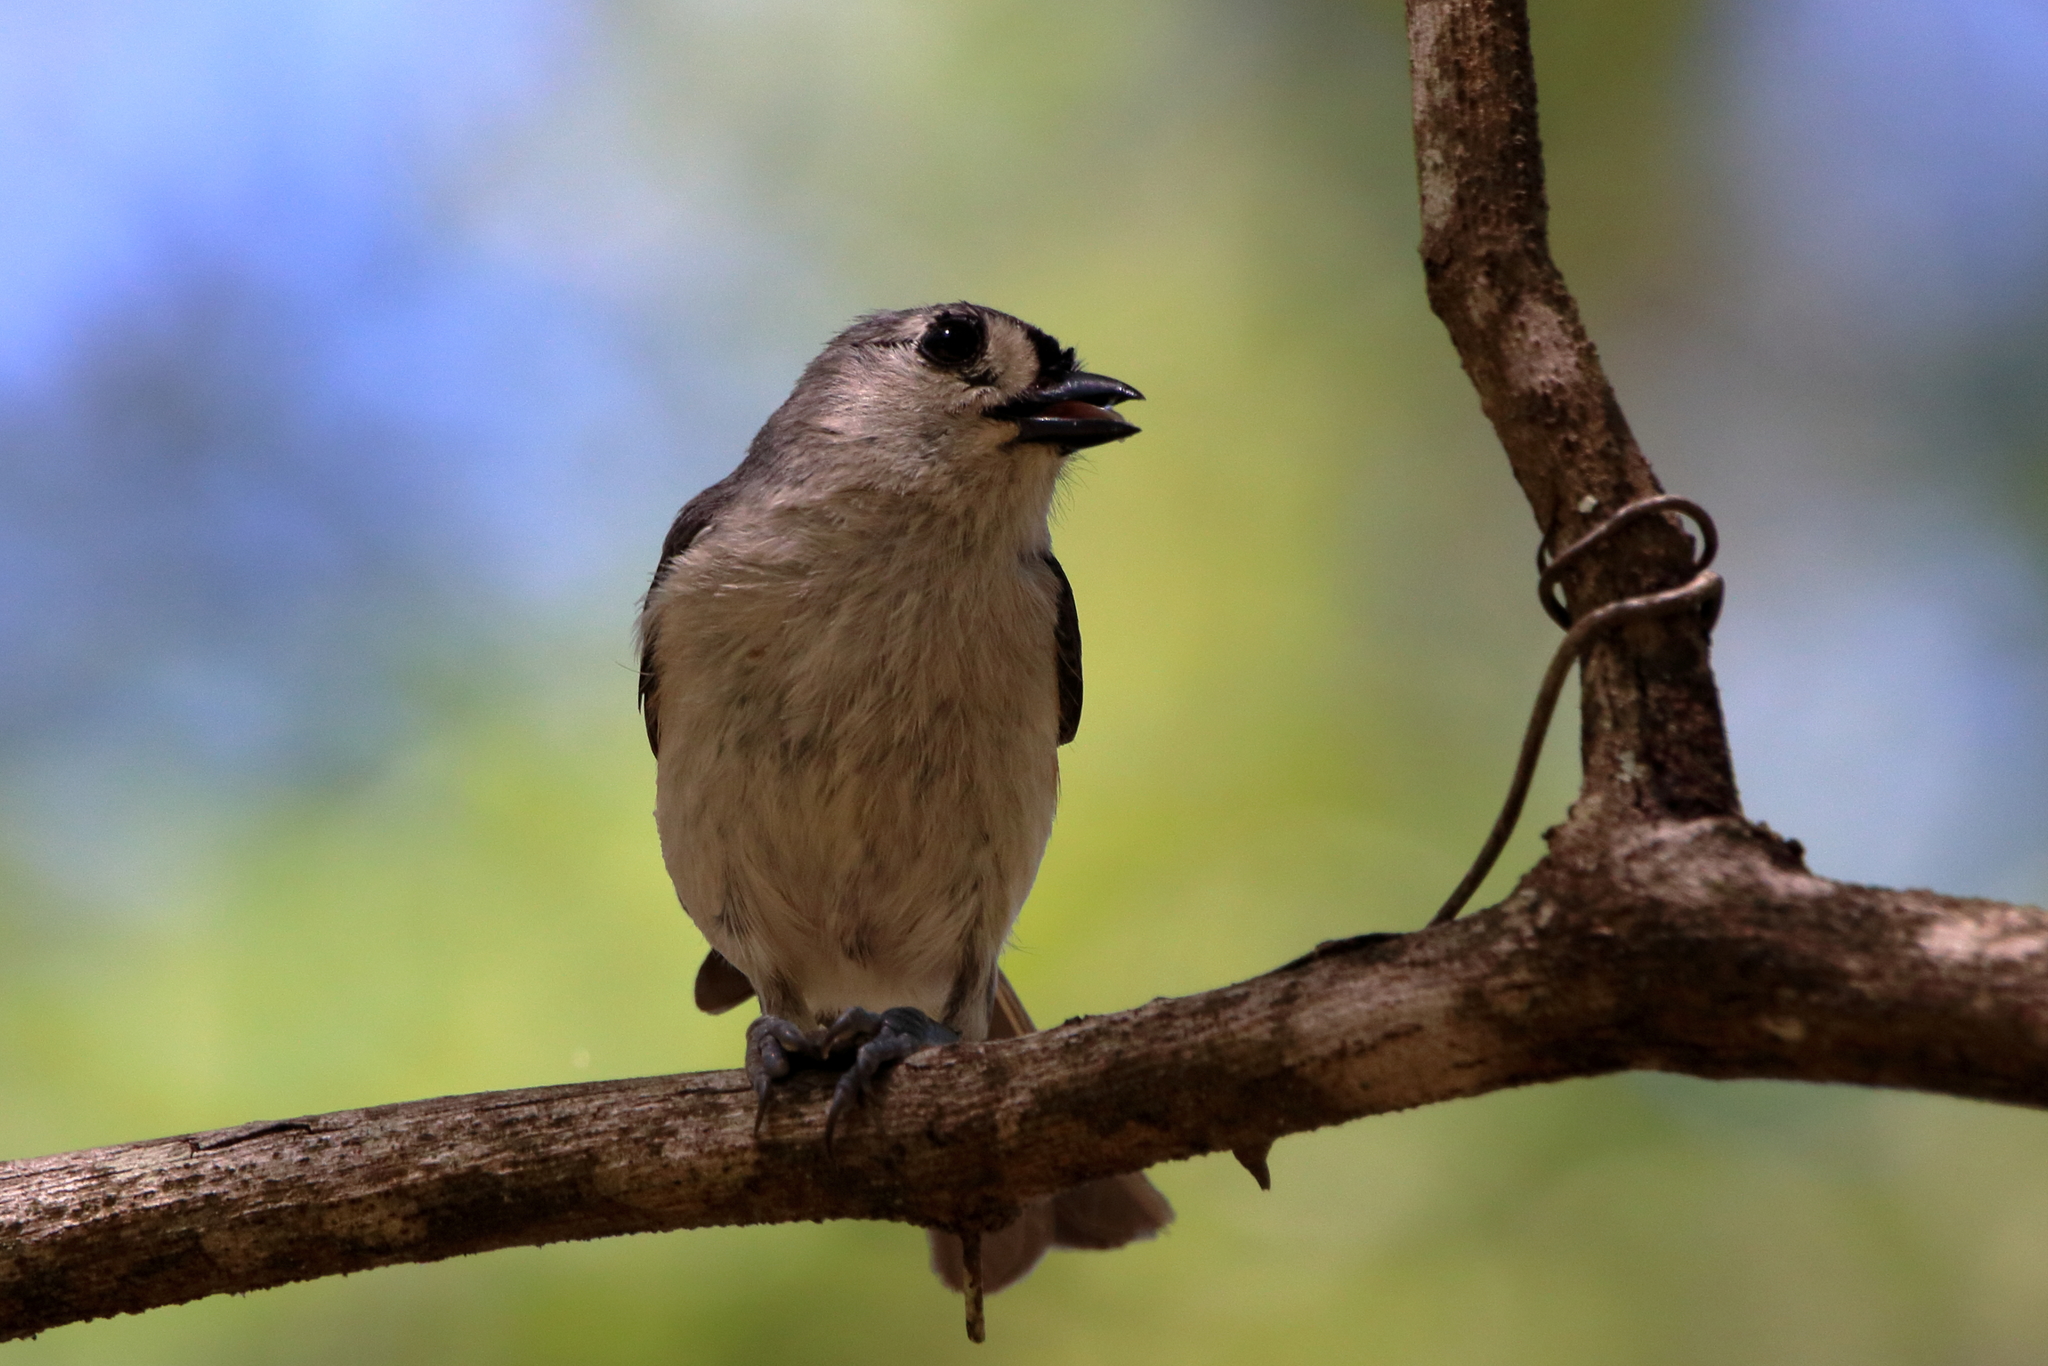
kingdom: Animalia
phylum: Chordata
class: Aves
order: Passeriformes
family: Paridae
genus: Baeolophus
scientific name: Baeolophus bicolor
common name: Tufted titmouse
